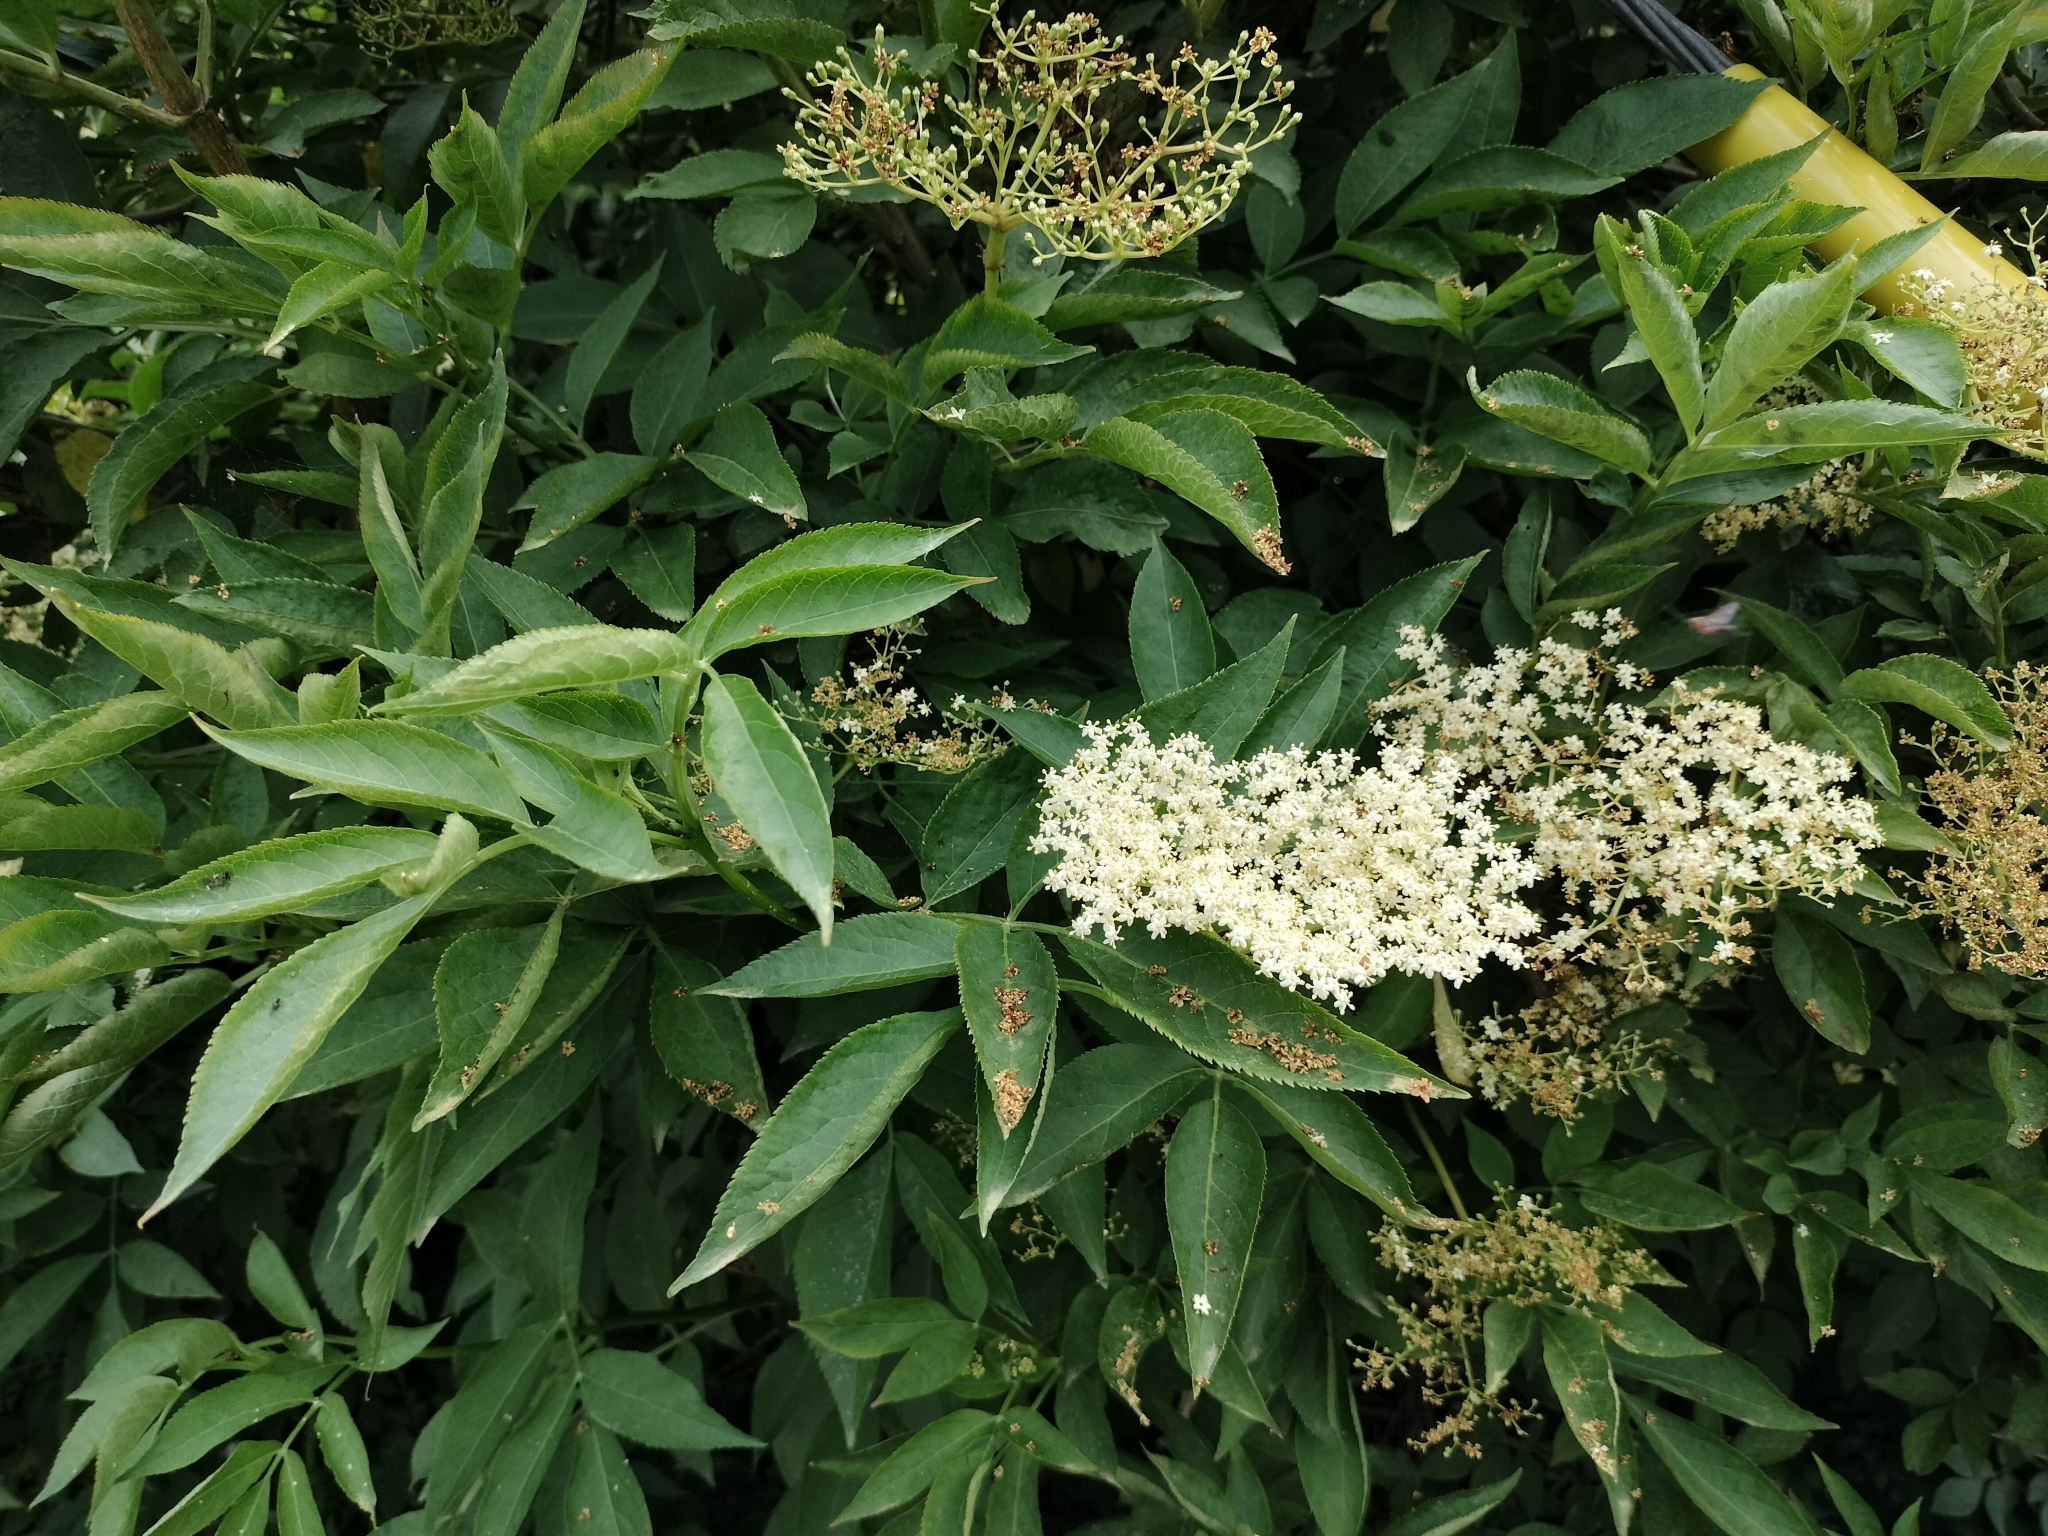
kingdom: Plantae
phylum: Tracheophyta
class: Magnoliopsida
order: Dipsacales
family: Viburnaceae
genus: Sambucus
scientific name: Sambucus nigra
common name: Elder
